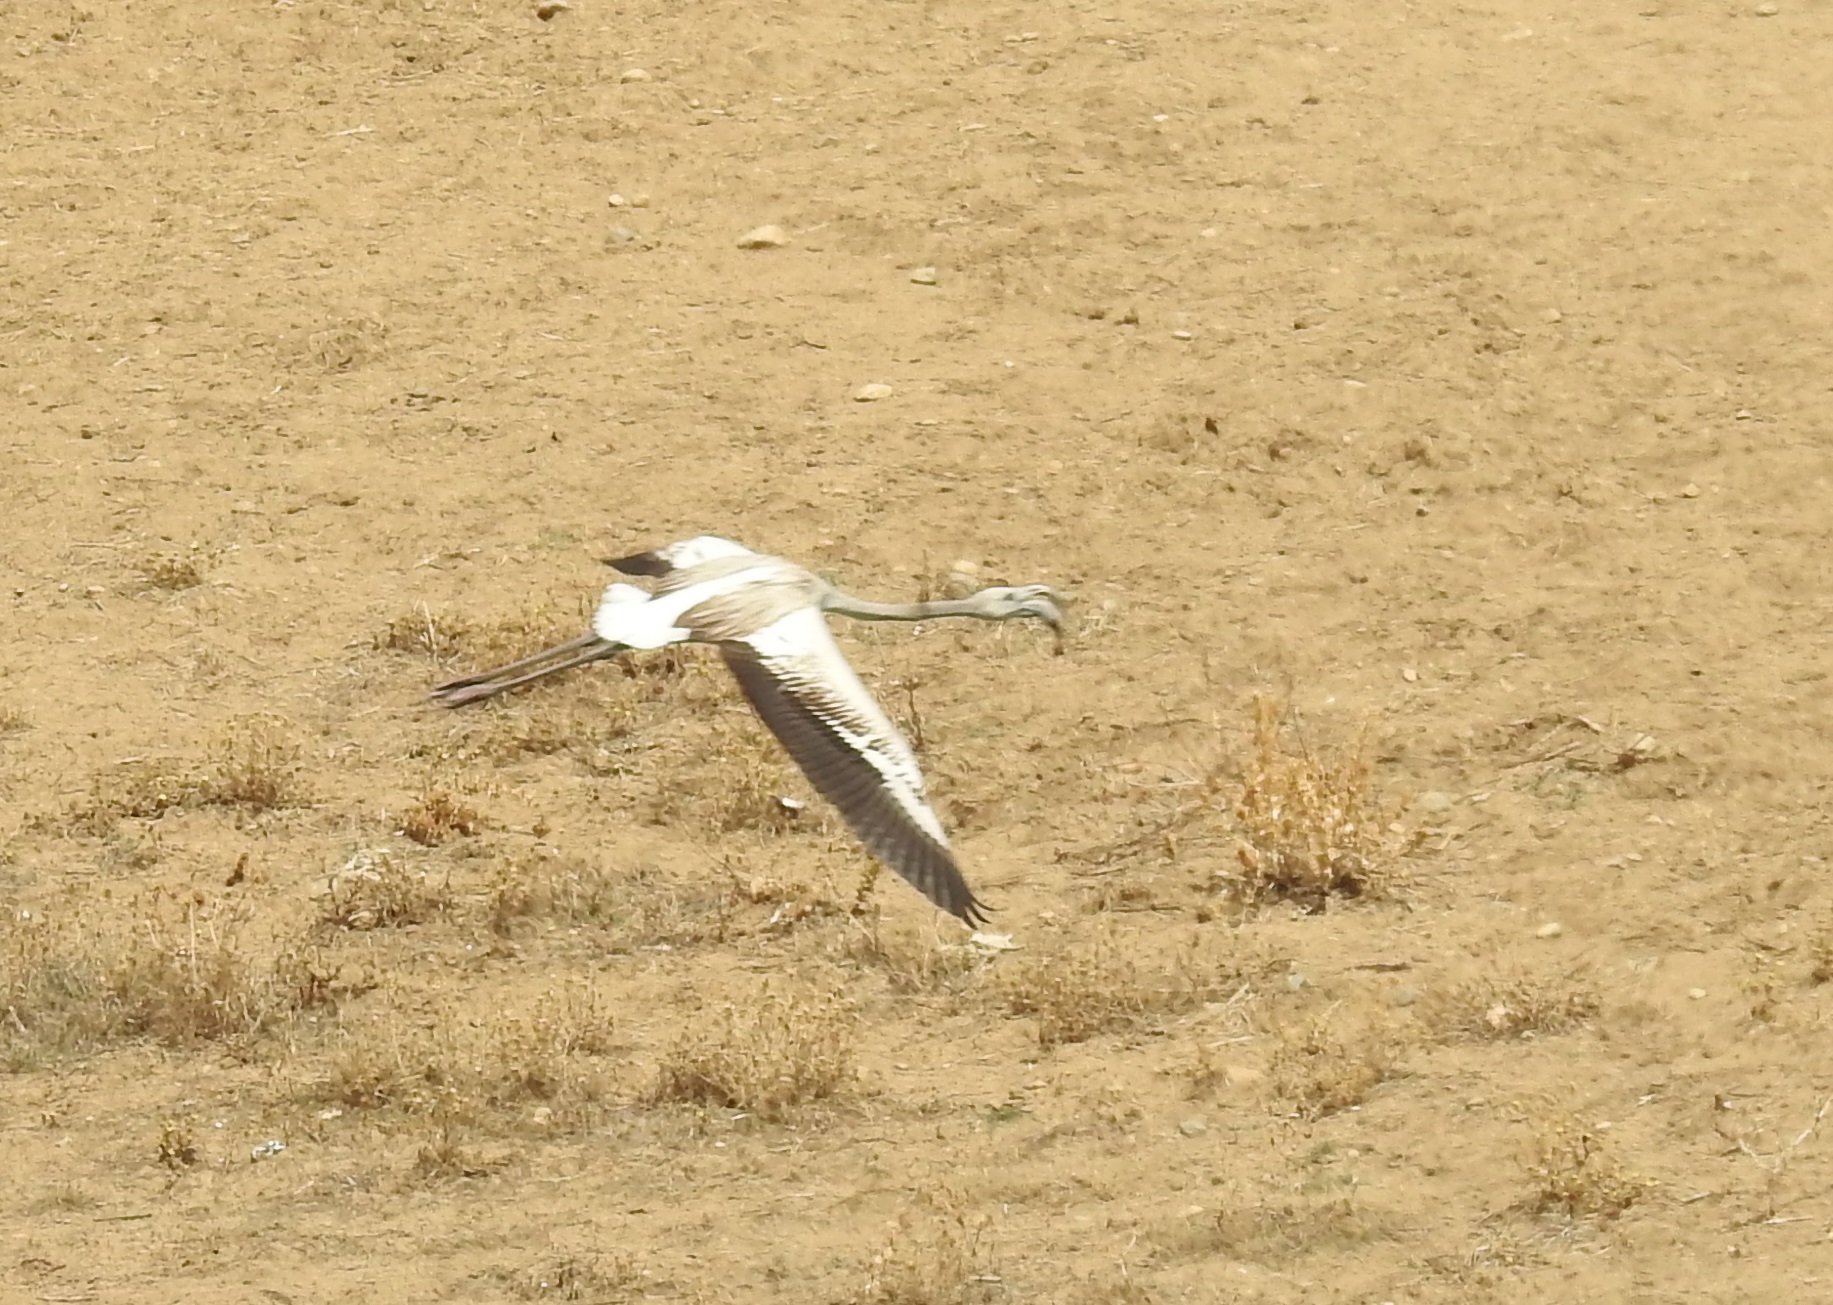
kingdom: Animalia
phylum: Chordata
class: Aves
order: Phoenicopteriformes
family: Phoenicopteridae
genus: Phoenicopterus
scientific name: Phoenicopterus roseus
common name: Greater flamingo
